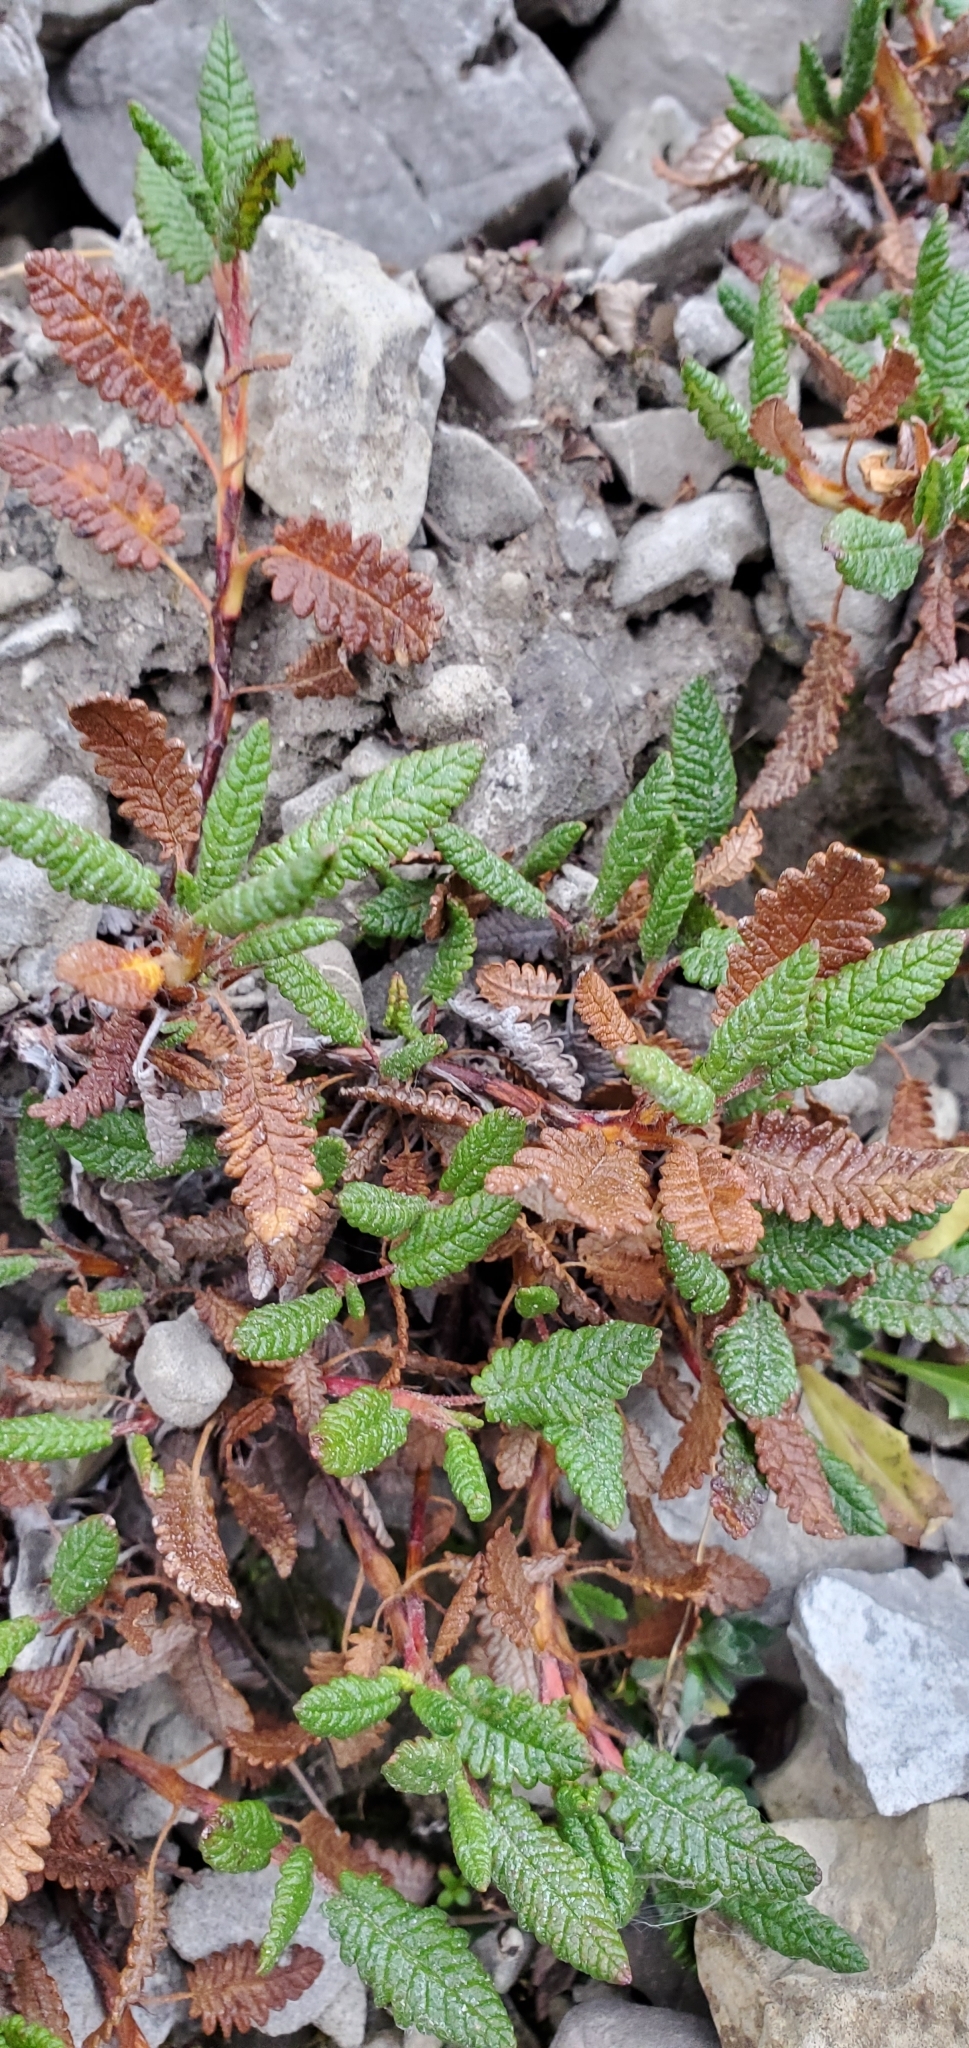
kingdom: Plantae
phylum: Tracheophyta
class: Magnoliopsida
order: Rosales
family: Rosaceae
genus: Dryas
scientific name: Dryas octopetala
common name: Eight-petal mountain-avens
